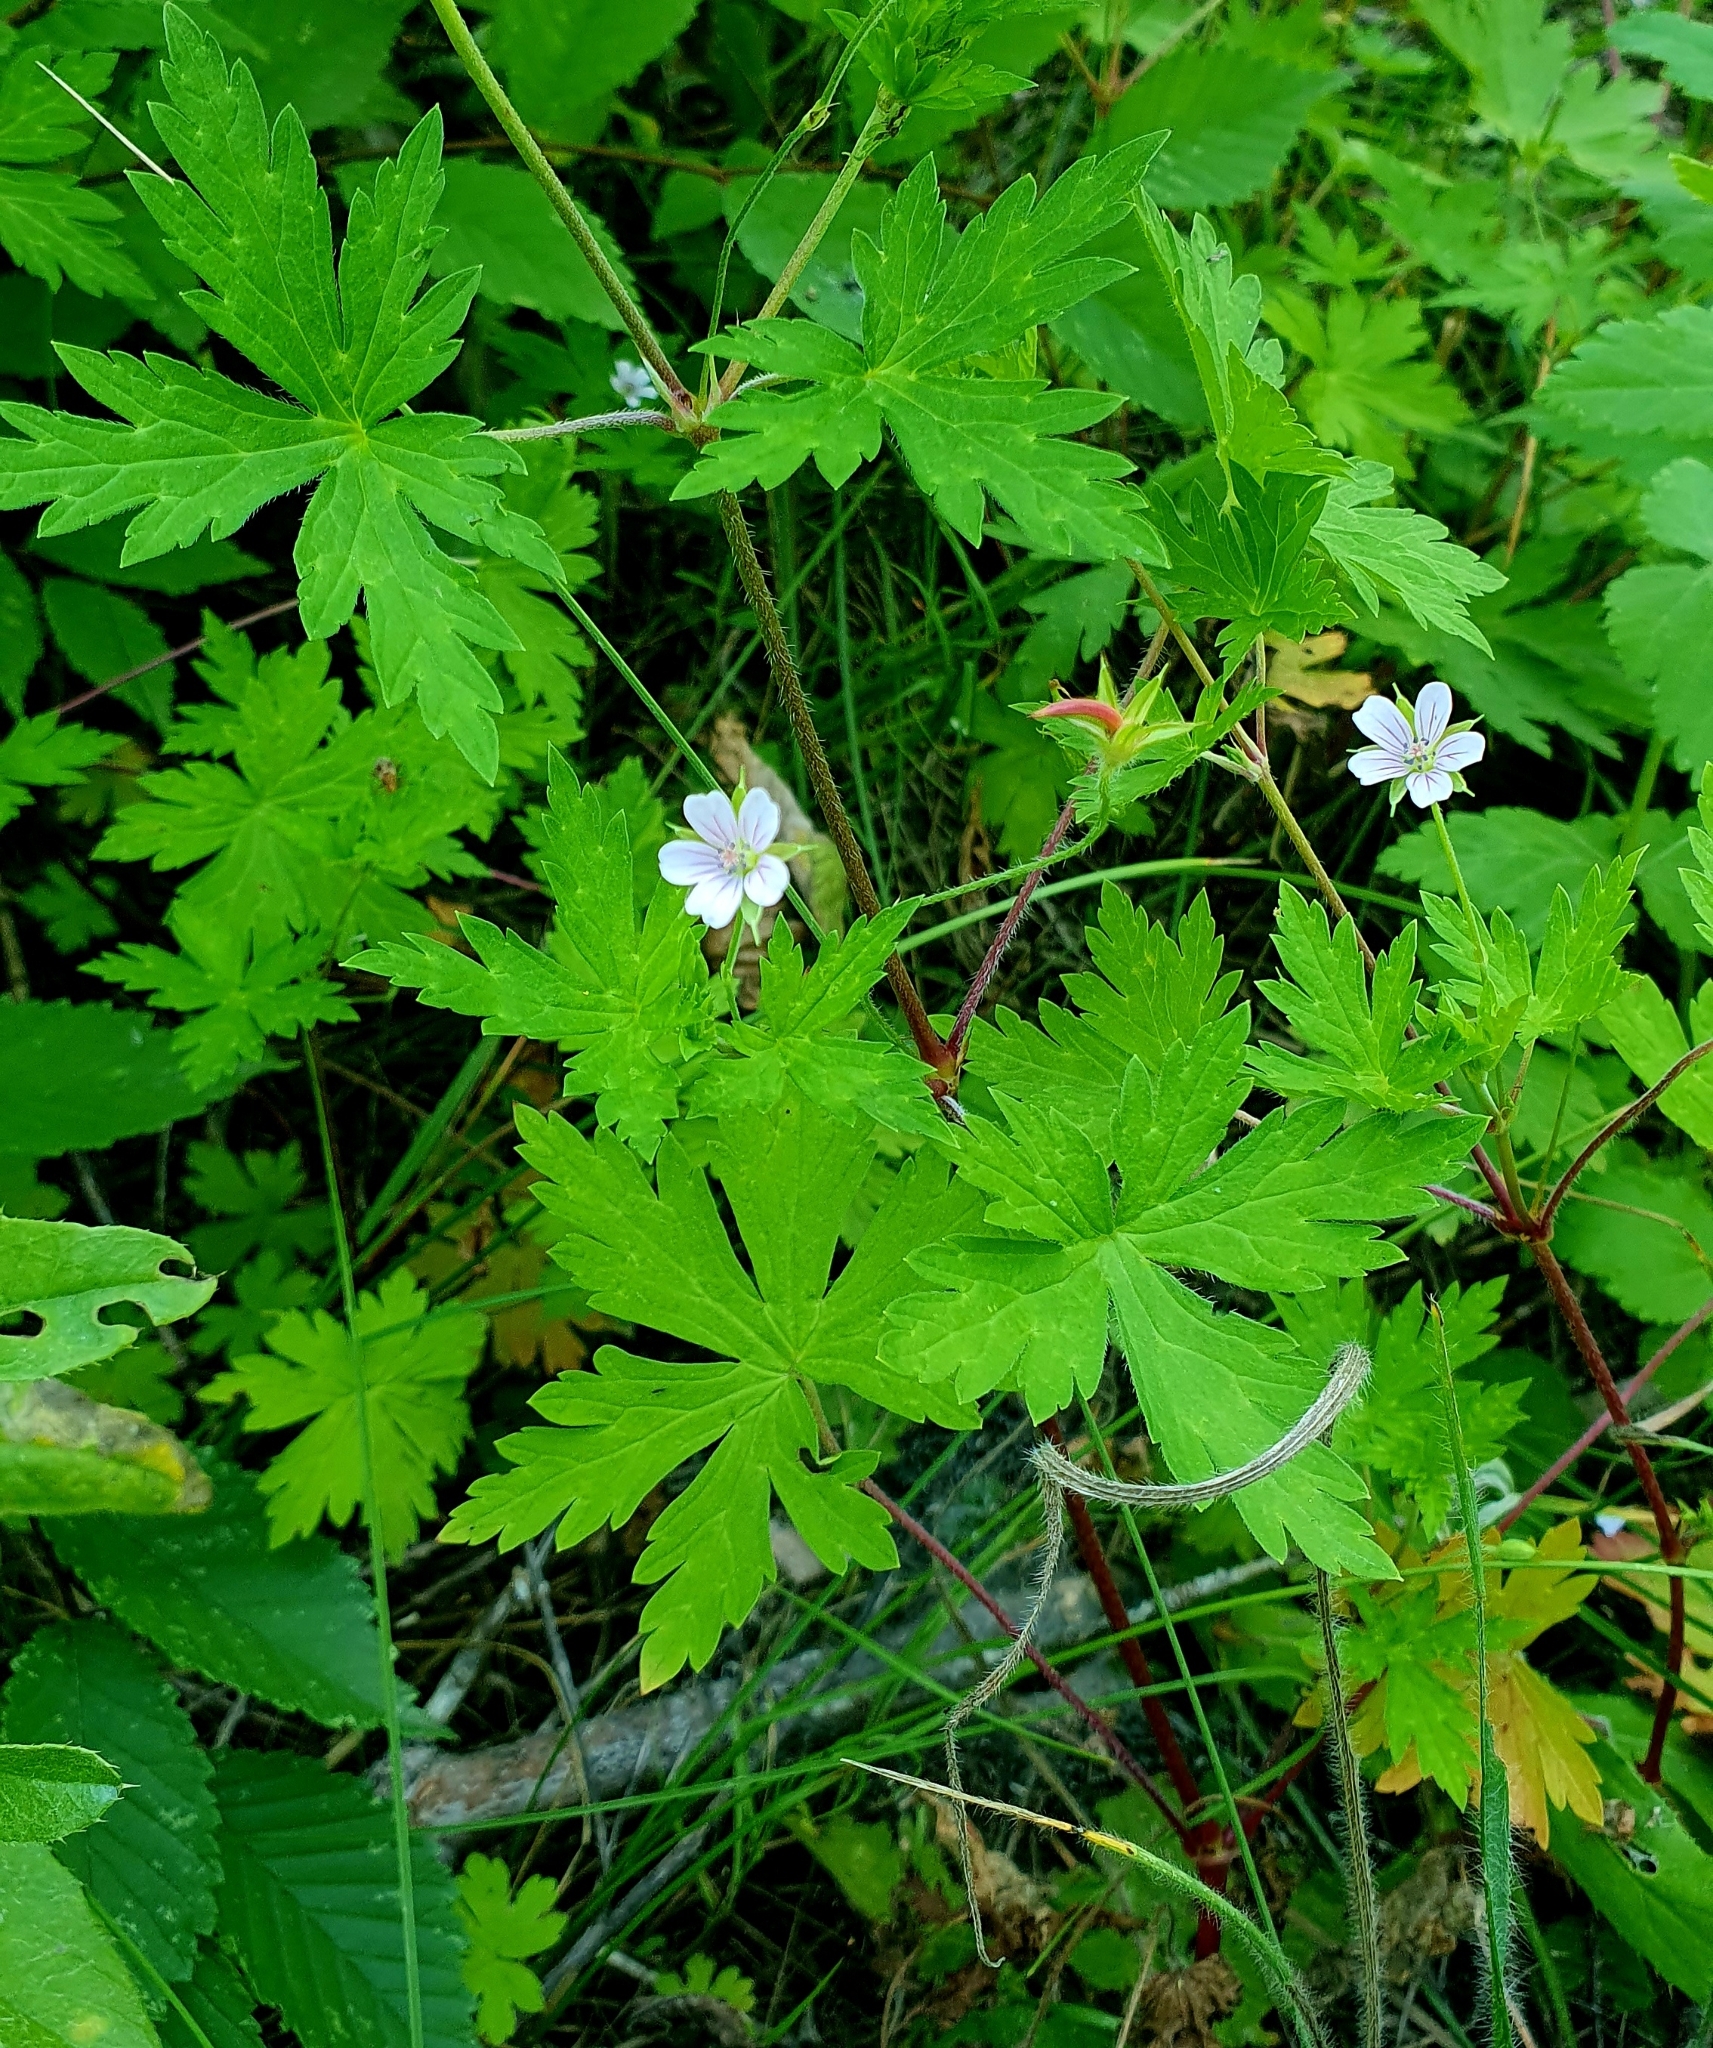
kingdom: Plantae
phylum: Tracheophyta
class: Magnoliopsida
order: Geraniales
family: Geraniaceae
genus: Geranium
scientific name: Geranium sibiricum
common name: Siberian crane's-bill
